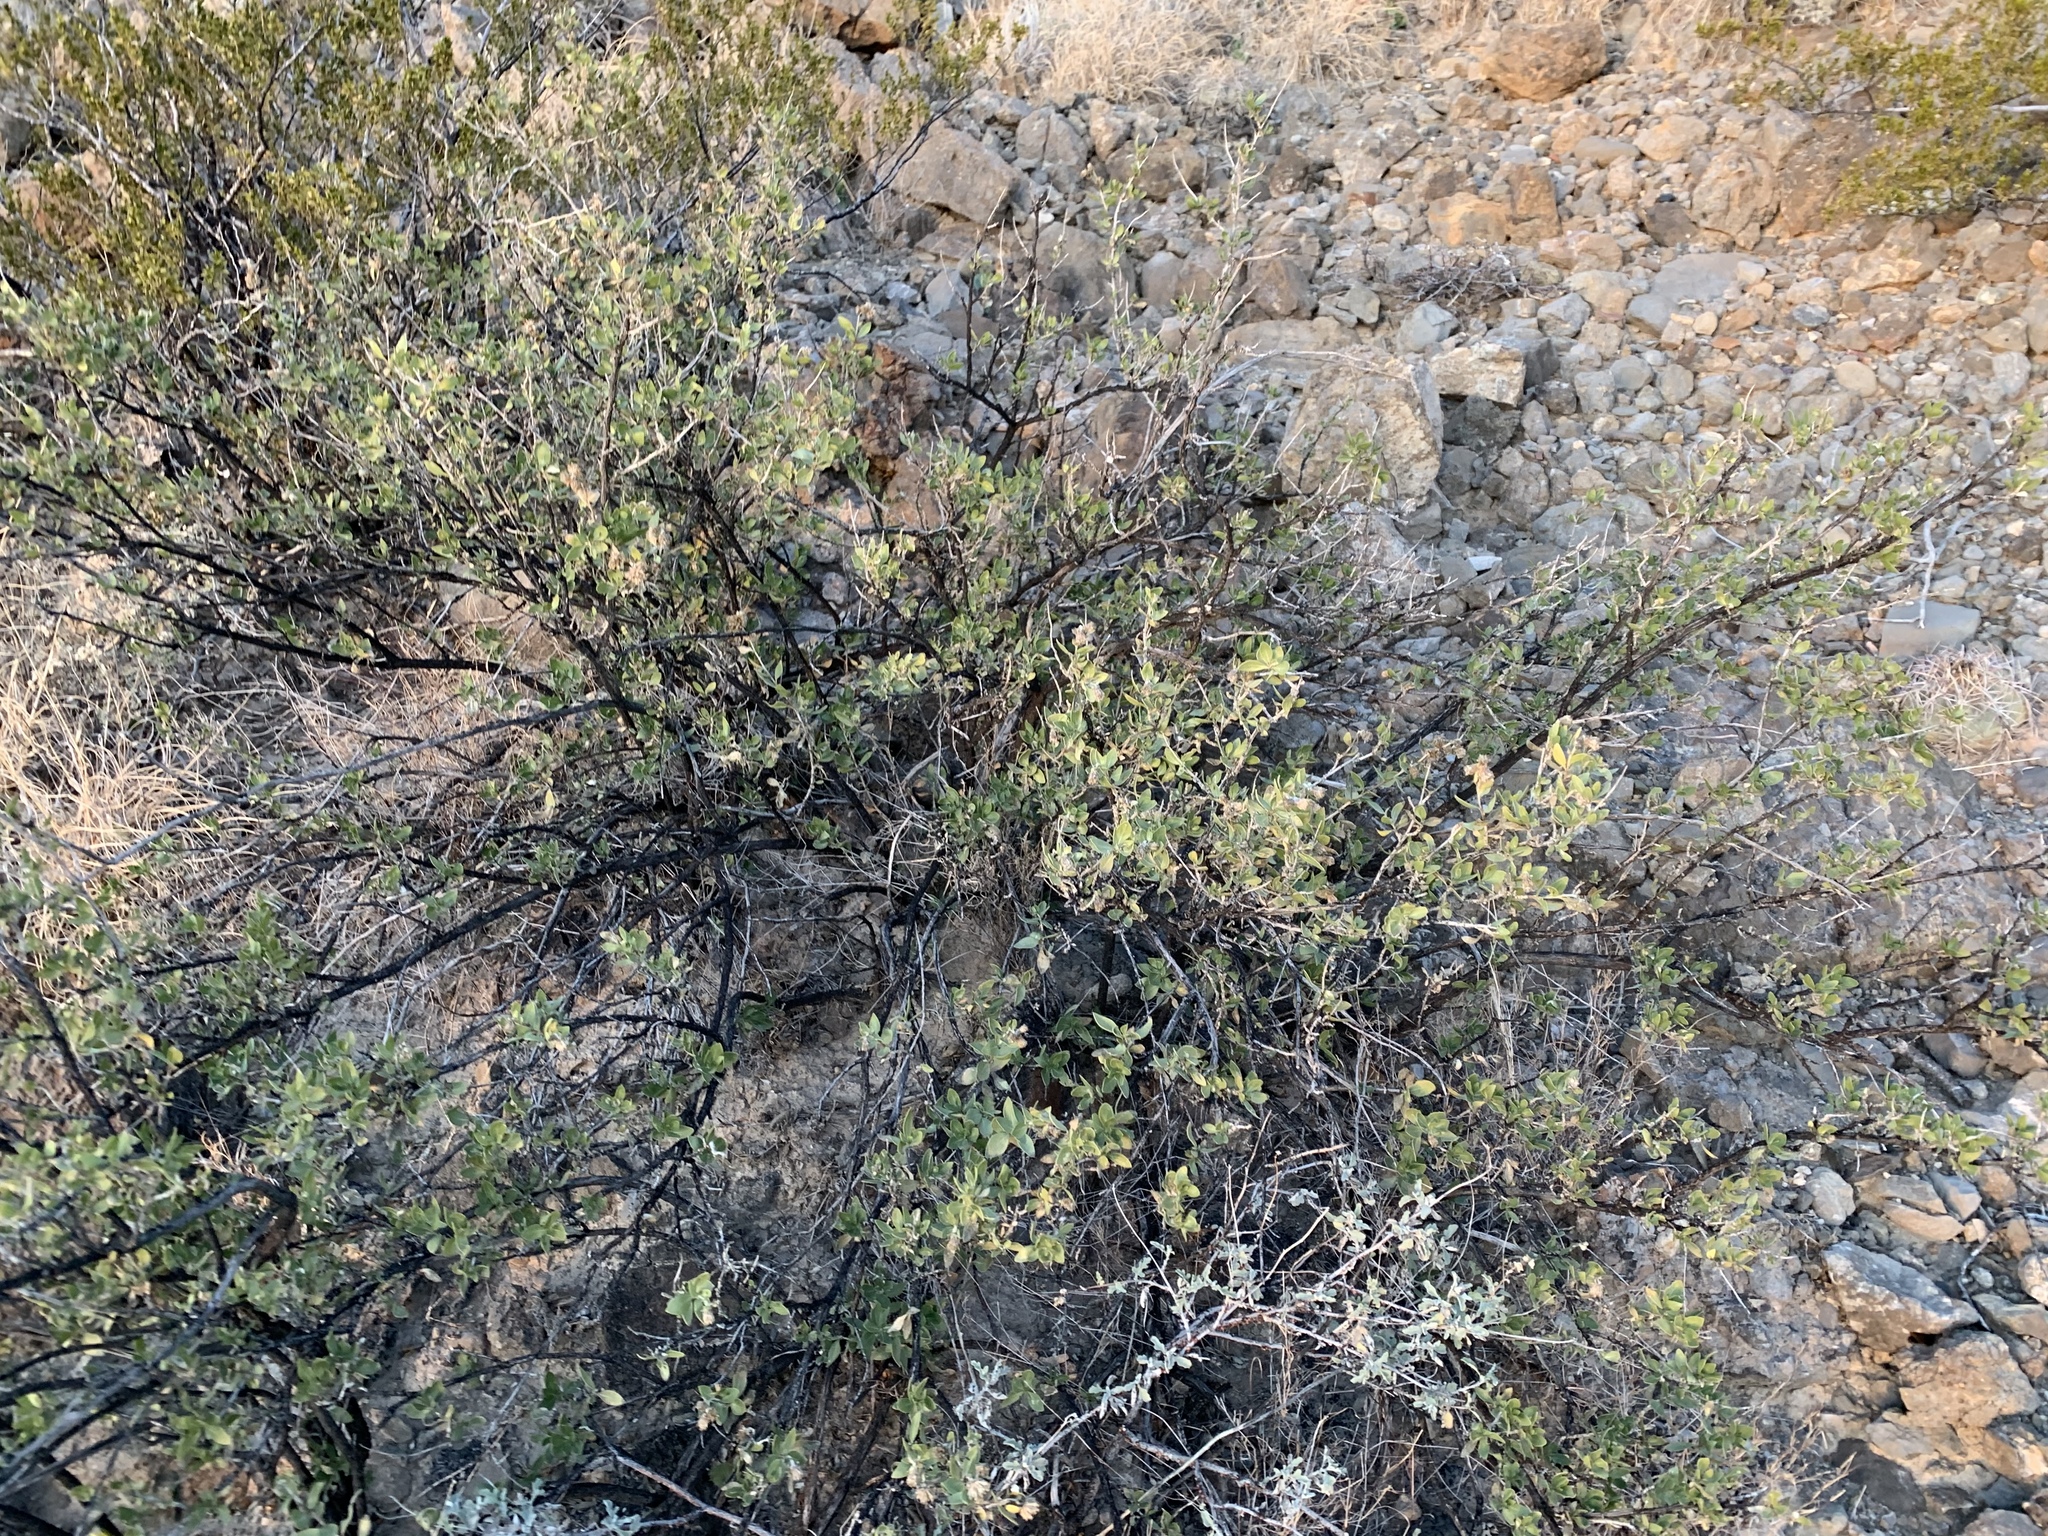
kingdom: Plantae
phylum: Tracheophyta
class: Magnoliopsida
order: Asterales
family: Asteraceae
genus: Flourensia
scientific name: Flourensia cernua
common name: Varnishbush
